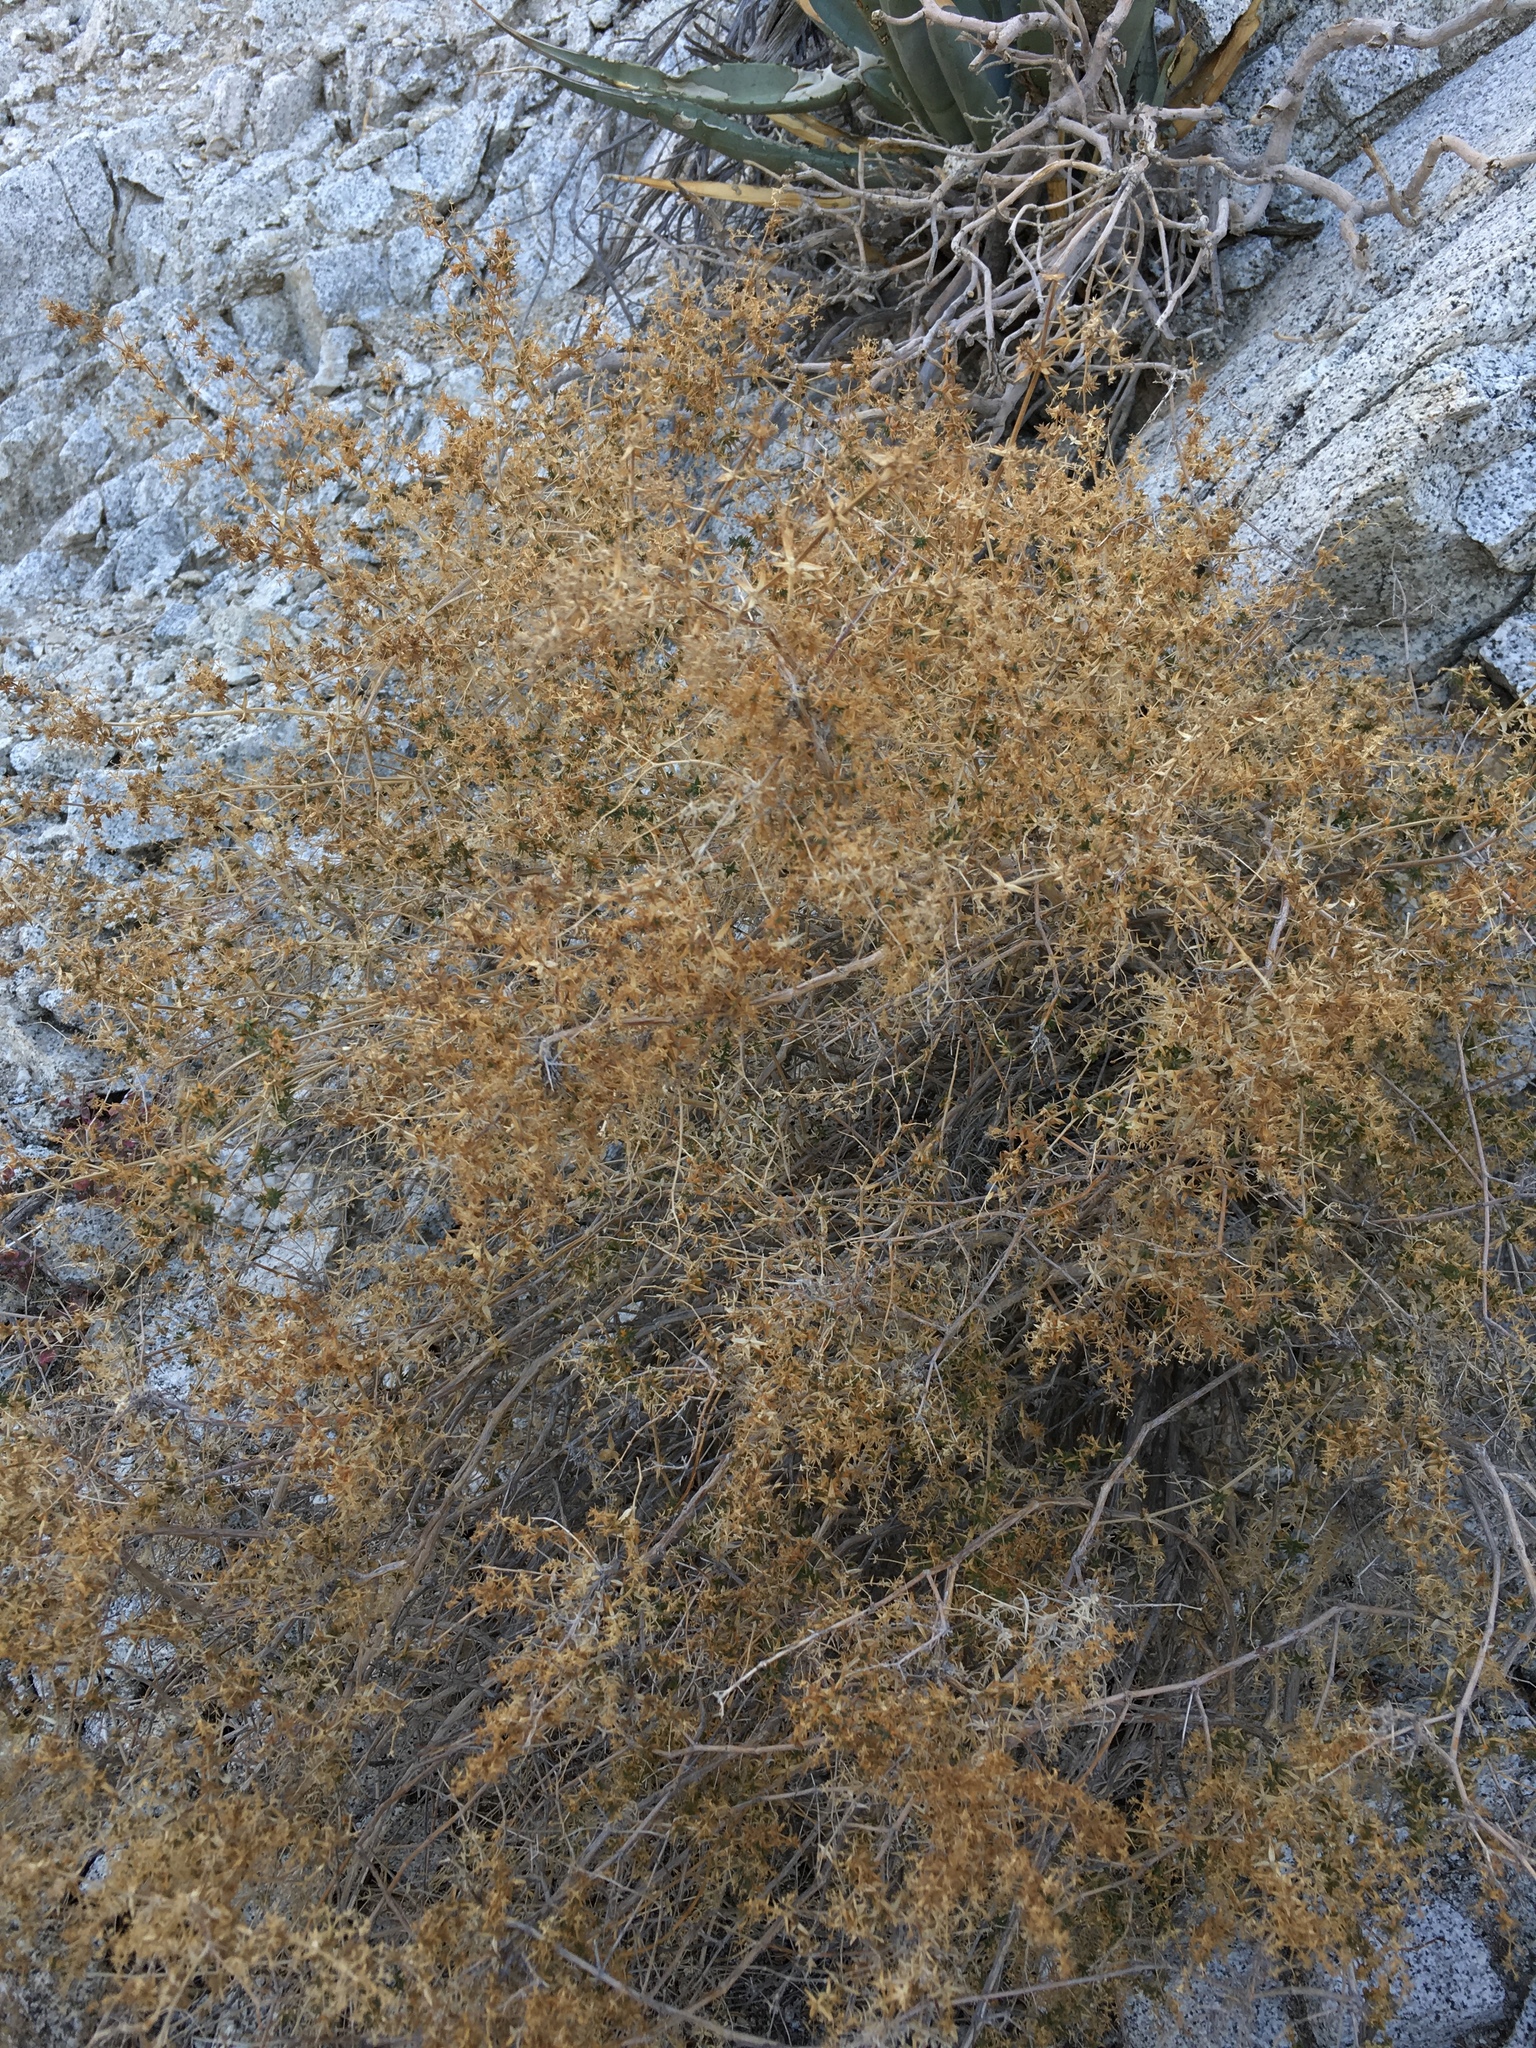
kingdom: Plantae
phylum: Tracheophyta
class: Magnoliopsida
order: Gentianales
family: Rubiaceae
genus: Galium
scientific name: Galium stellatum
